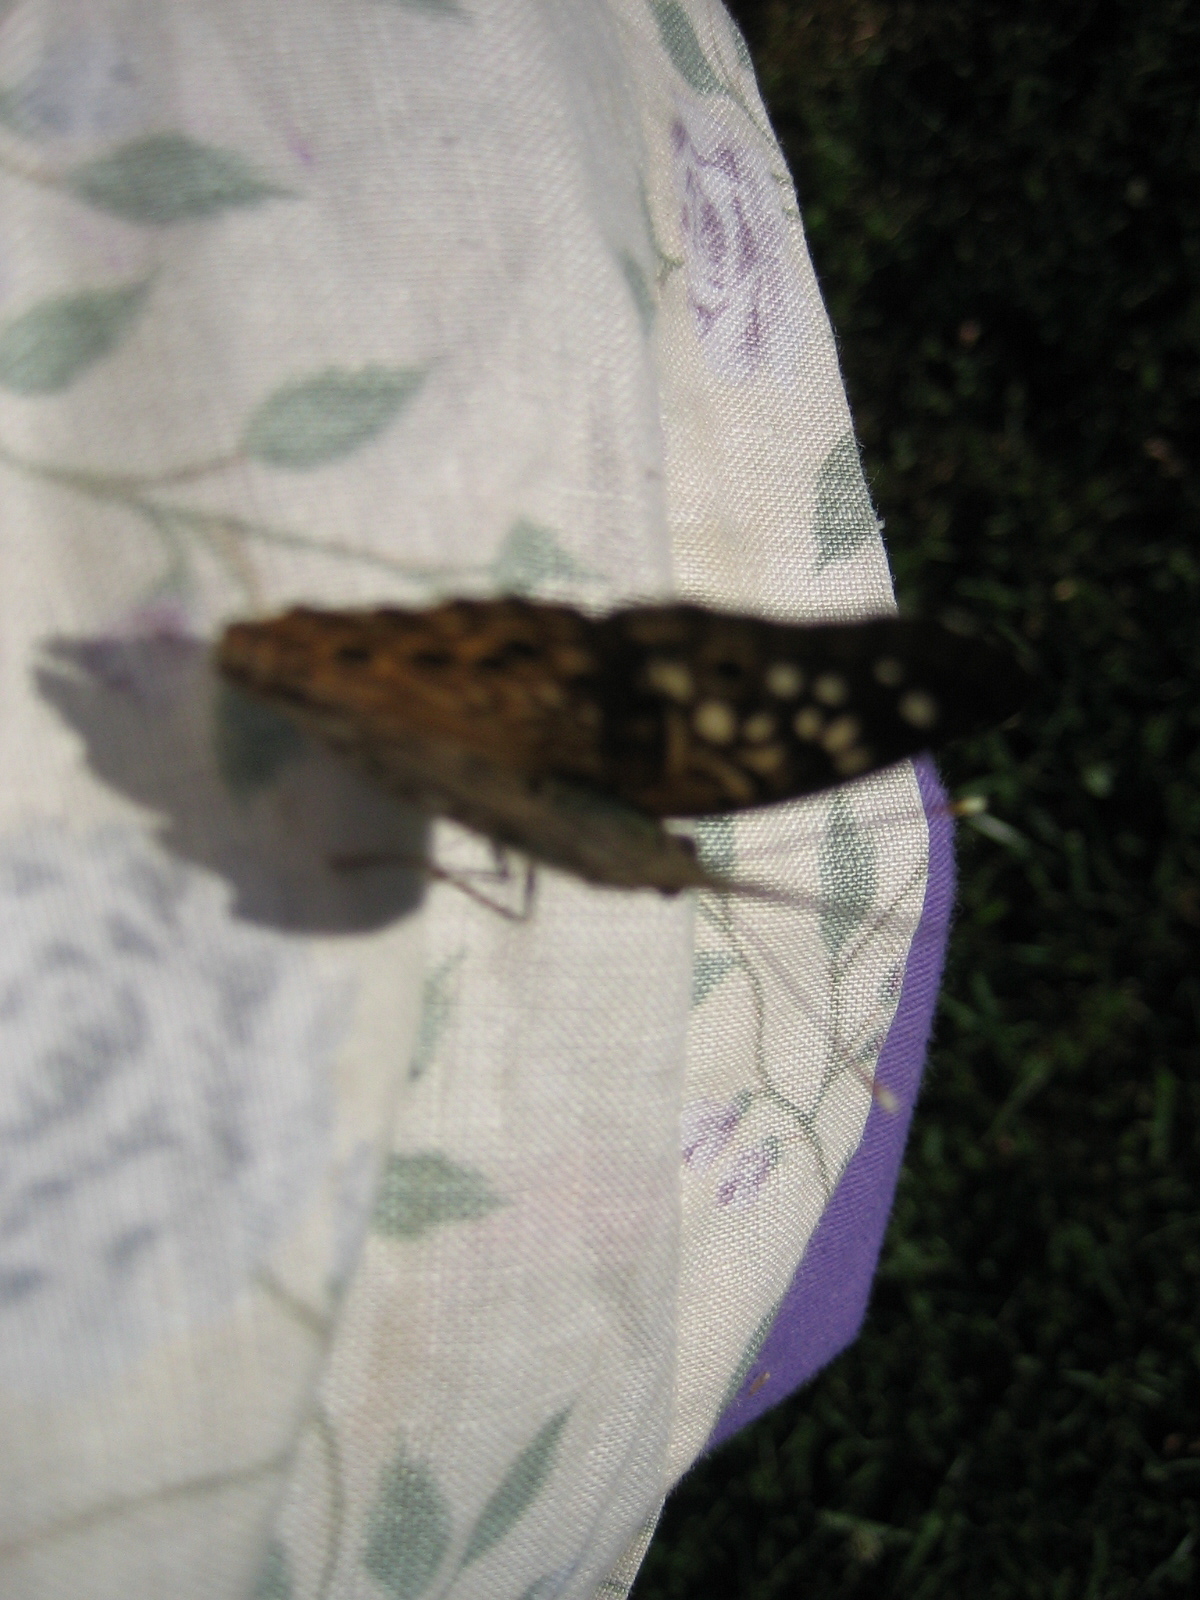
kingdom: Animalia
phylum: Arthropoda
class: Insecta
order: Lepidoptera
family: Nymphalidae
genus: Asterocampa
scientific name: Asterocampa celtis
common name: Hackberry emperor
